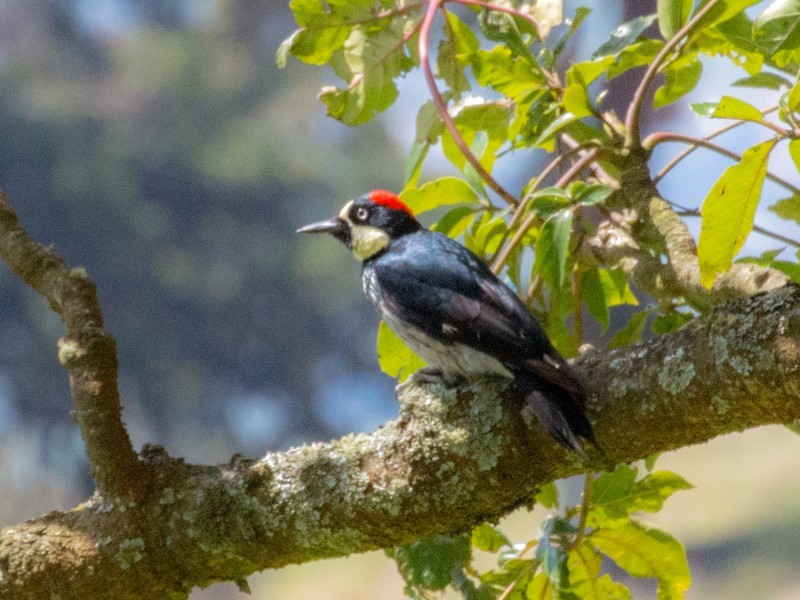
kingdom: Animalia
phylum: Chordata
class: Aves
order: Piciformes
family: Picidae
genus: Melanerpes
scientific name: Melanerpes formicivorus
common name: Acorn woodpecker
